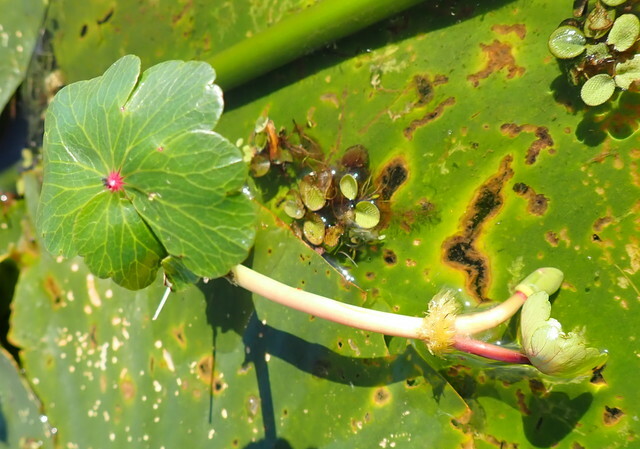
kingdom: Plantae
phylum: Tracheophyta
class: Magnoliopsida
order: Apiales
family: Araliaceae
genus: Hydrocotyle
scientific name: Hydrocotyle ranunculoides
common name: Floating pennywort
